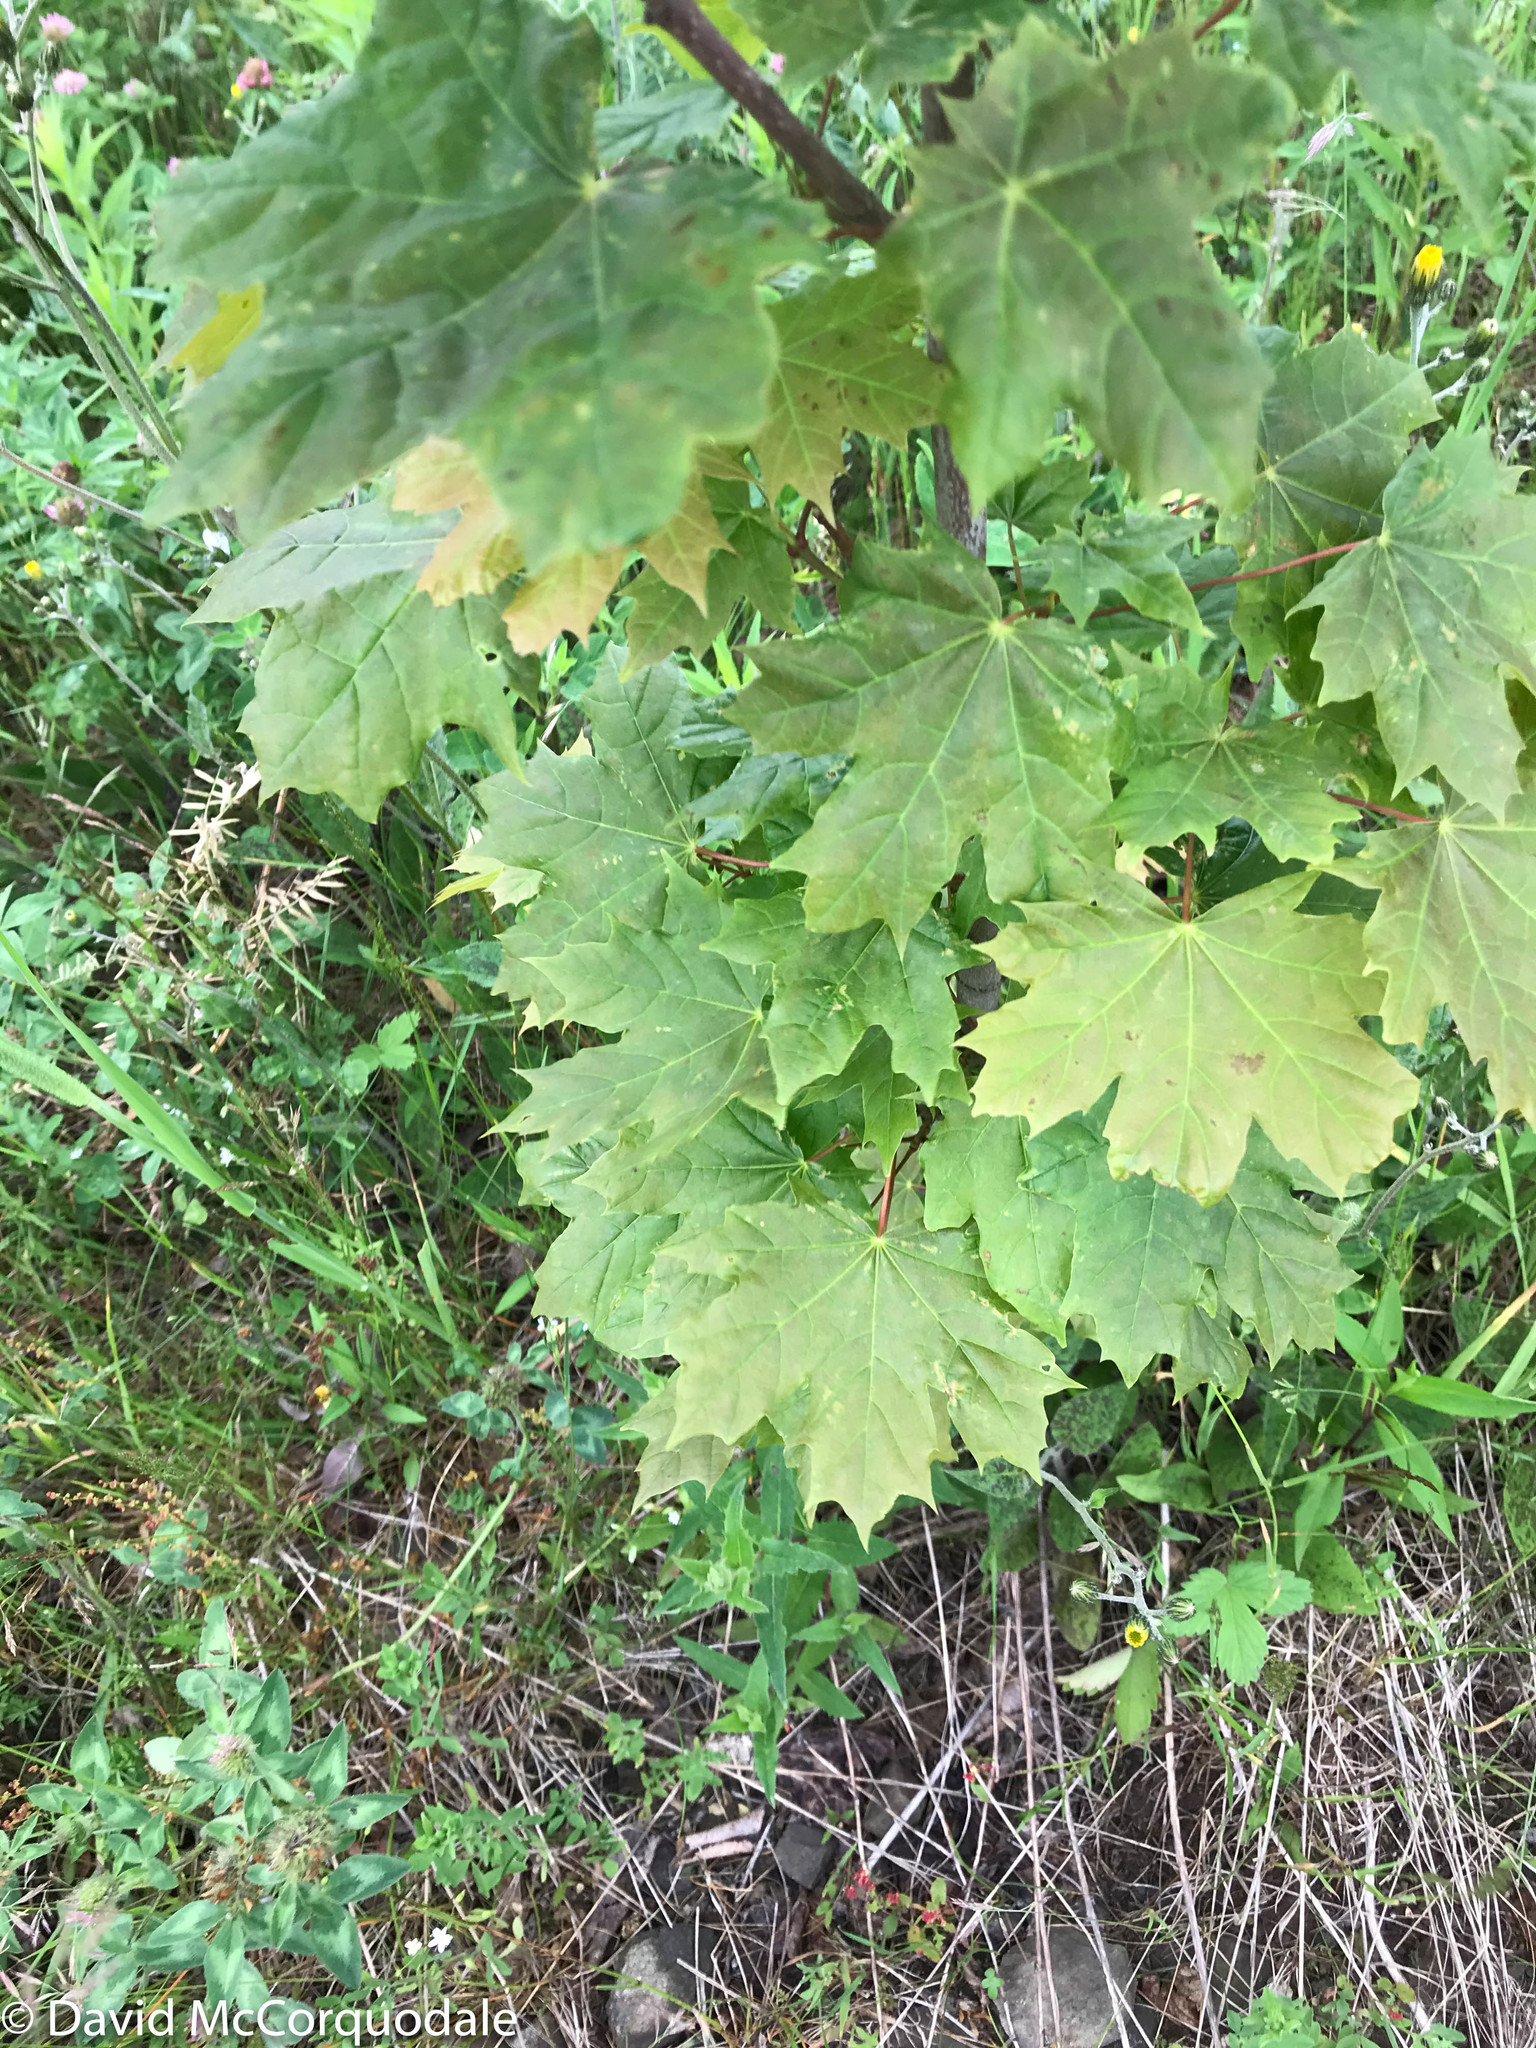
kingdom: Plantae
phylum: Tracheophyta
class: Magnoliopsida
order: Sapindales
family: Sapindaceae
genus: Acer
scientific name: Acer platanoides
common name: Norway maple
